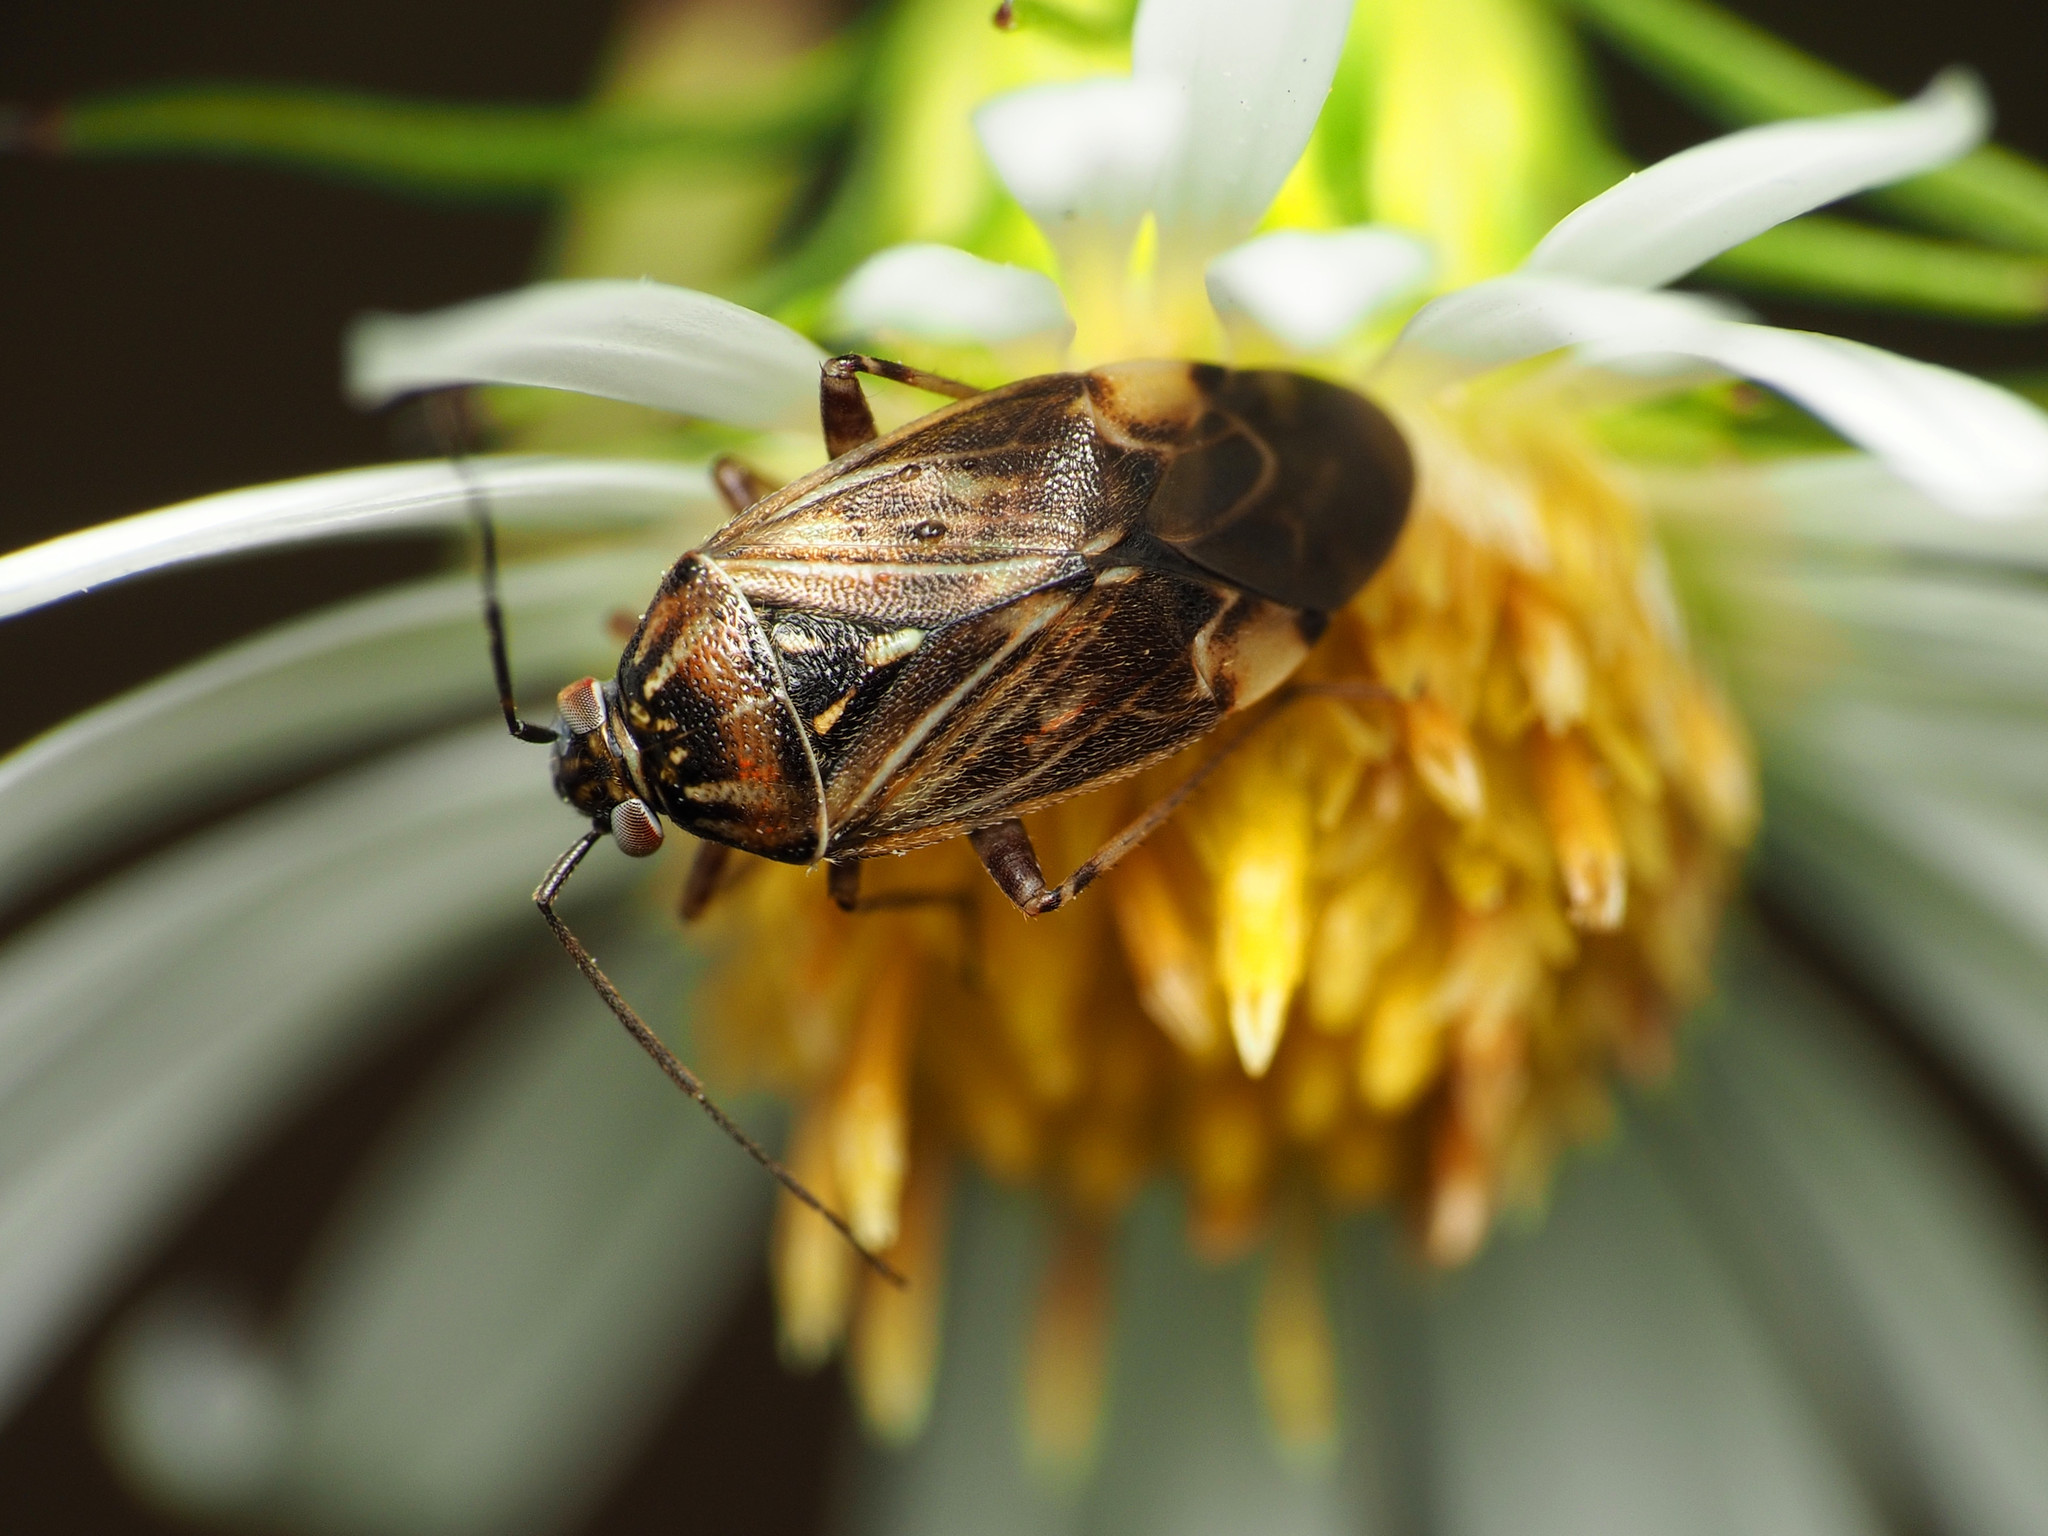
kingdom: Animalia
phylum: Arthropoda
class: Insecta
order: Hemiptera
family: Miridae
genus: Lygus
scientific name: Lygus lineolaris
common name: North american tarnished plant bug
